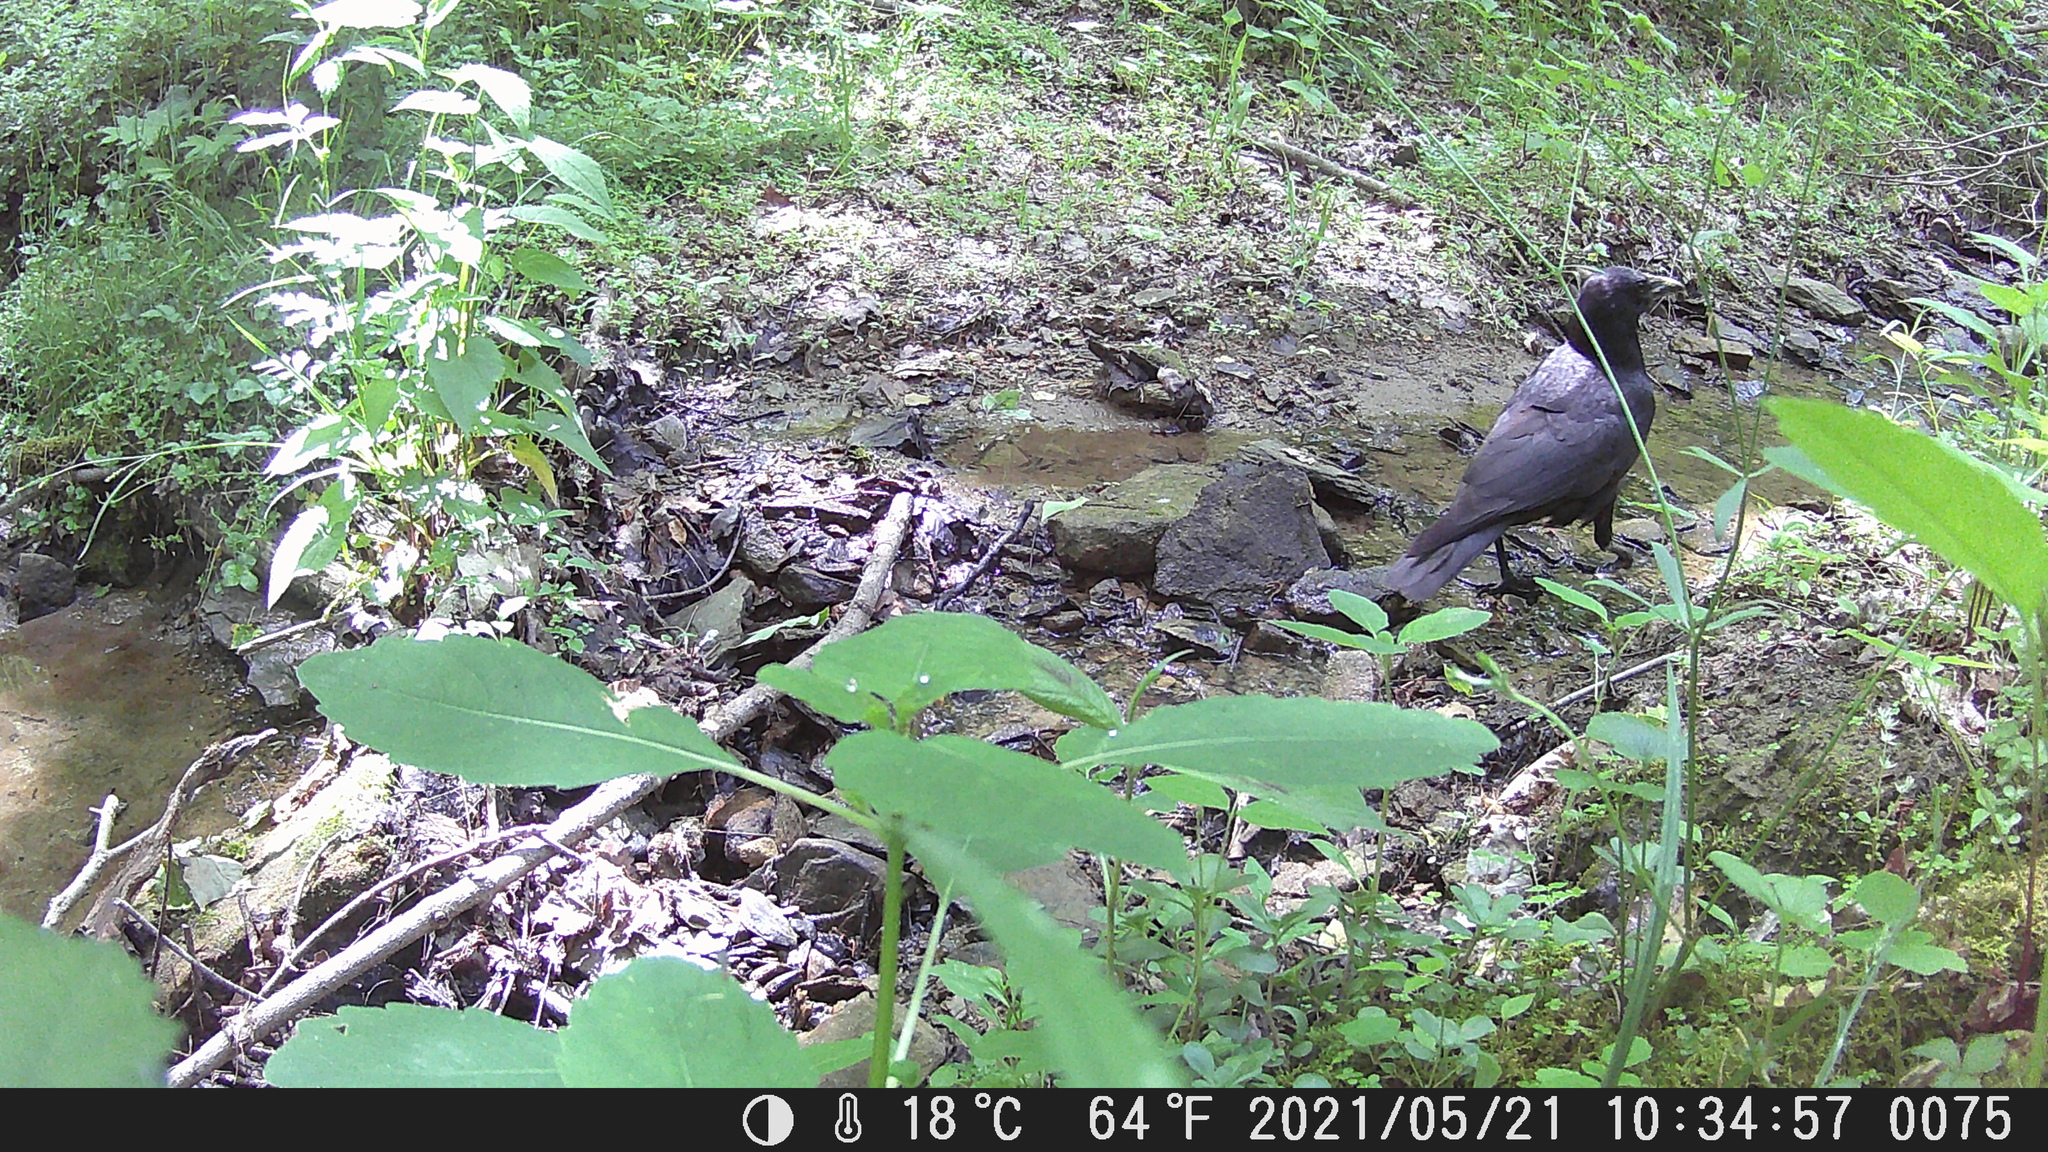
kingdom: Animalia
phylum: Chordata
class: Aves
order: Passeriformes
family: Corvidae
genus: Corvus
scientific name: Corvus brachyrhynchos
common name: American crow
